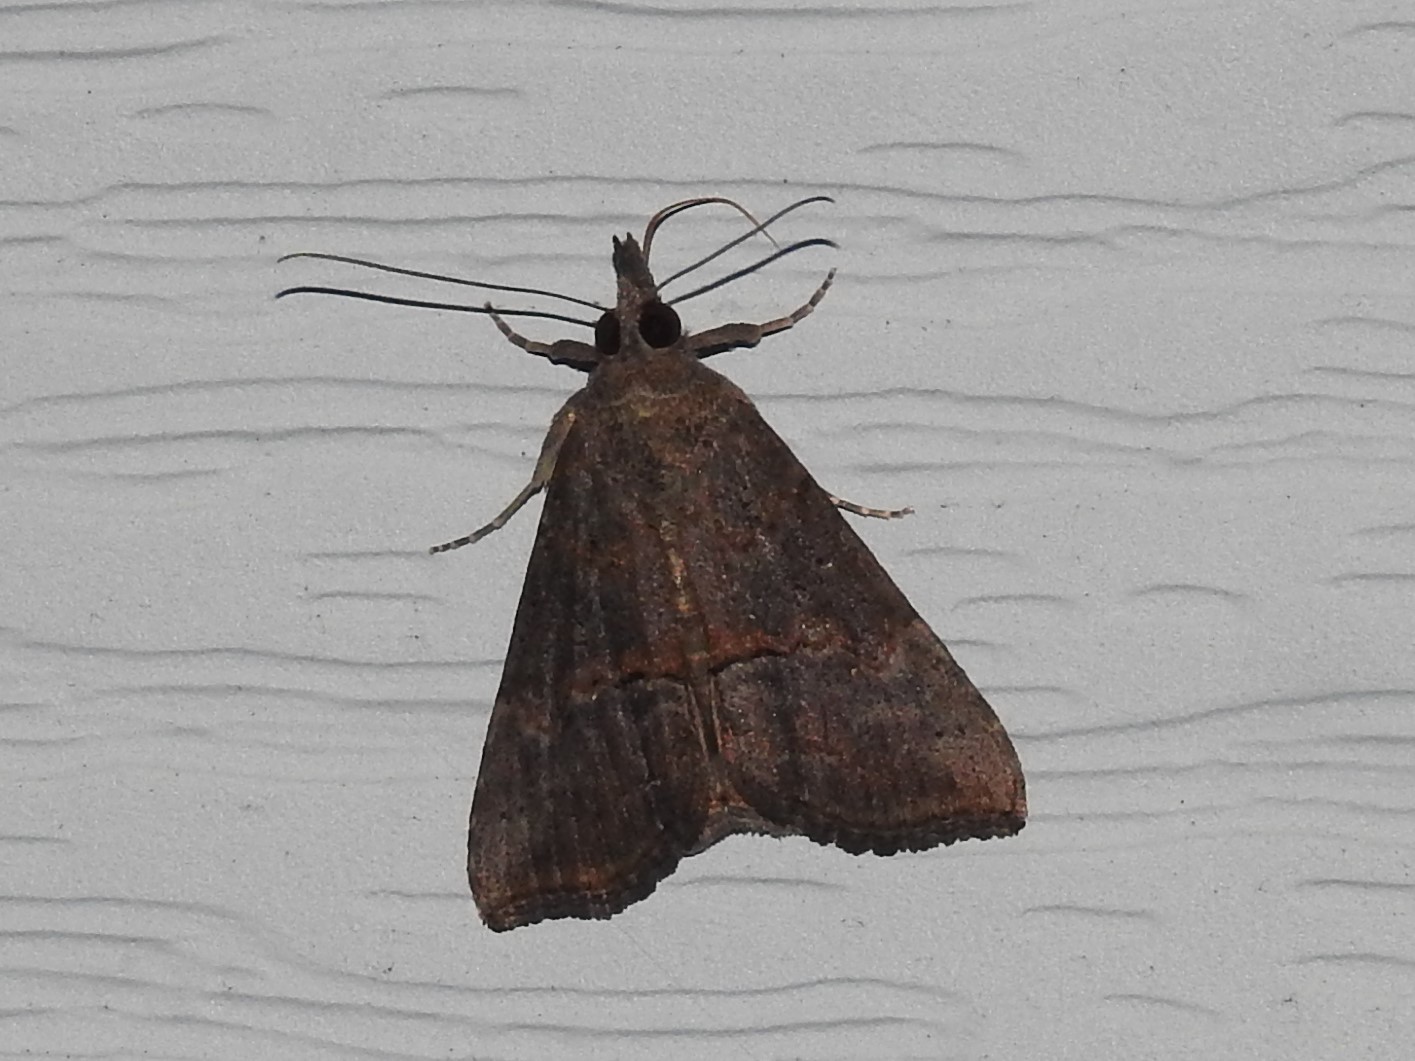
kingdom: Animalia
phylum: Arthropoda
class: Insecta
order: Lepidoptera
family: Erebidae
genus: Hypena
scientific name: Hypena scabra
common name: Green cloverworm
